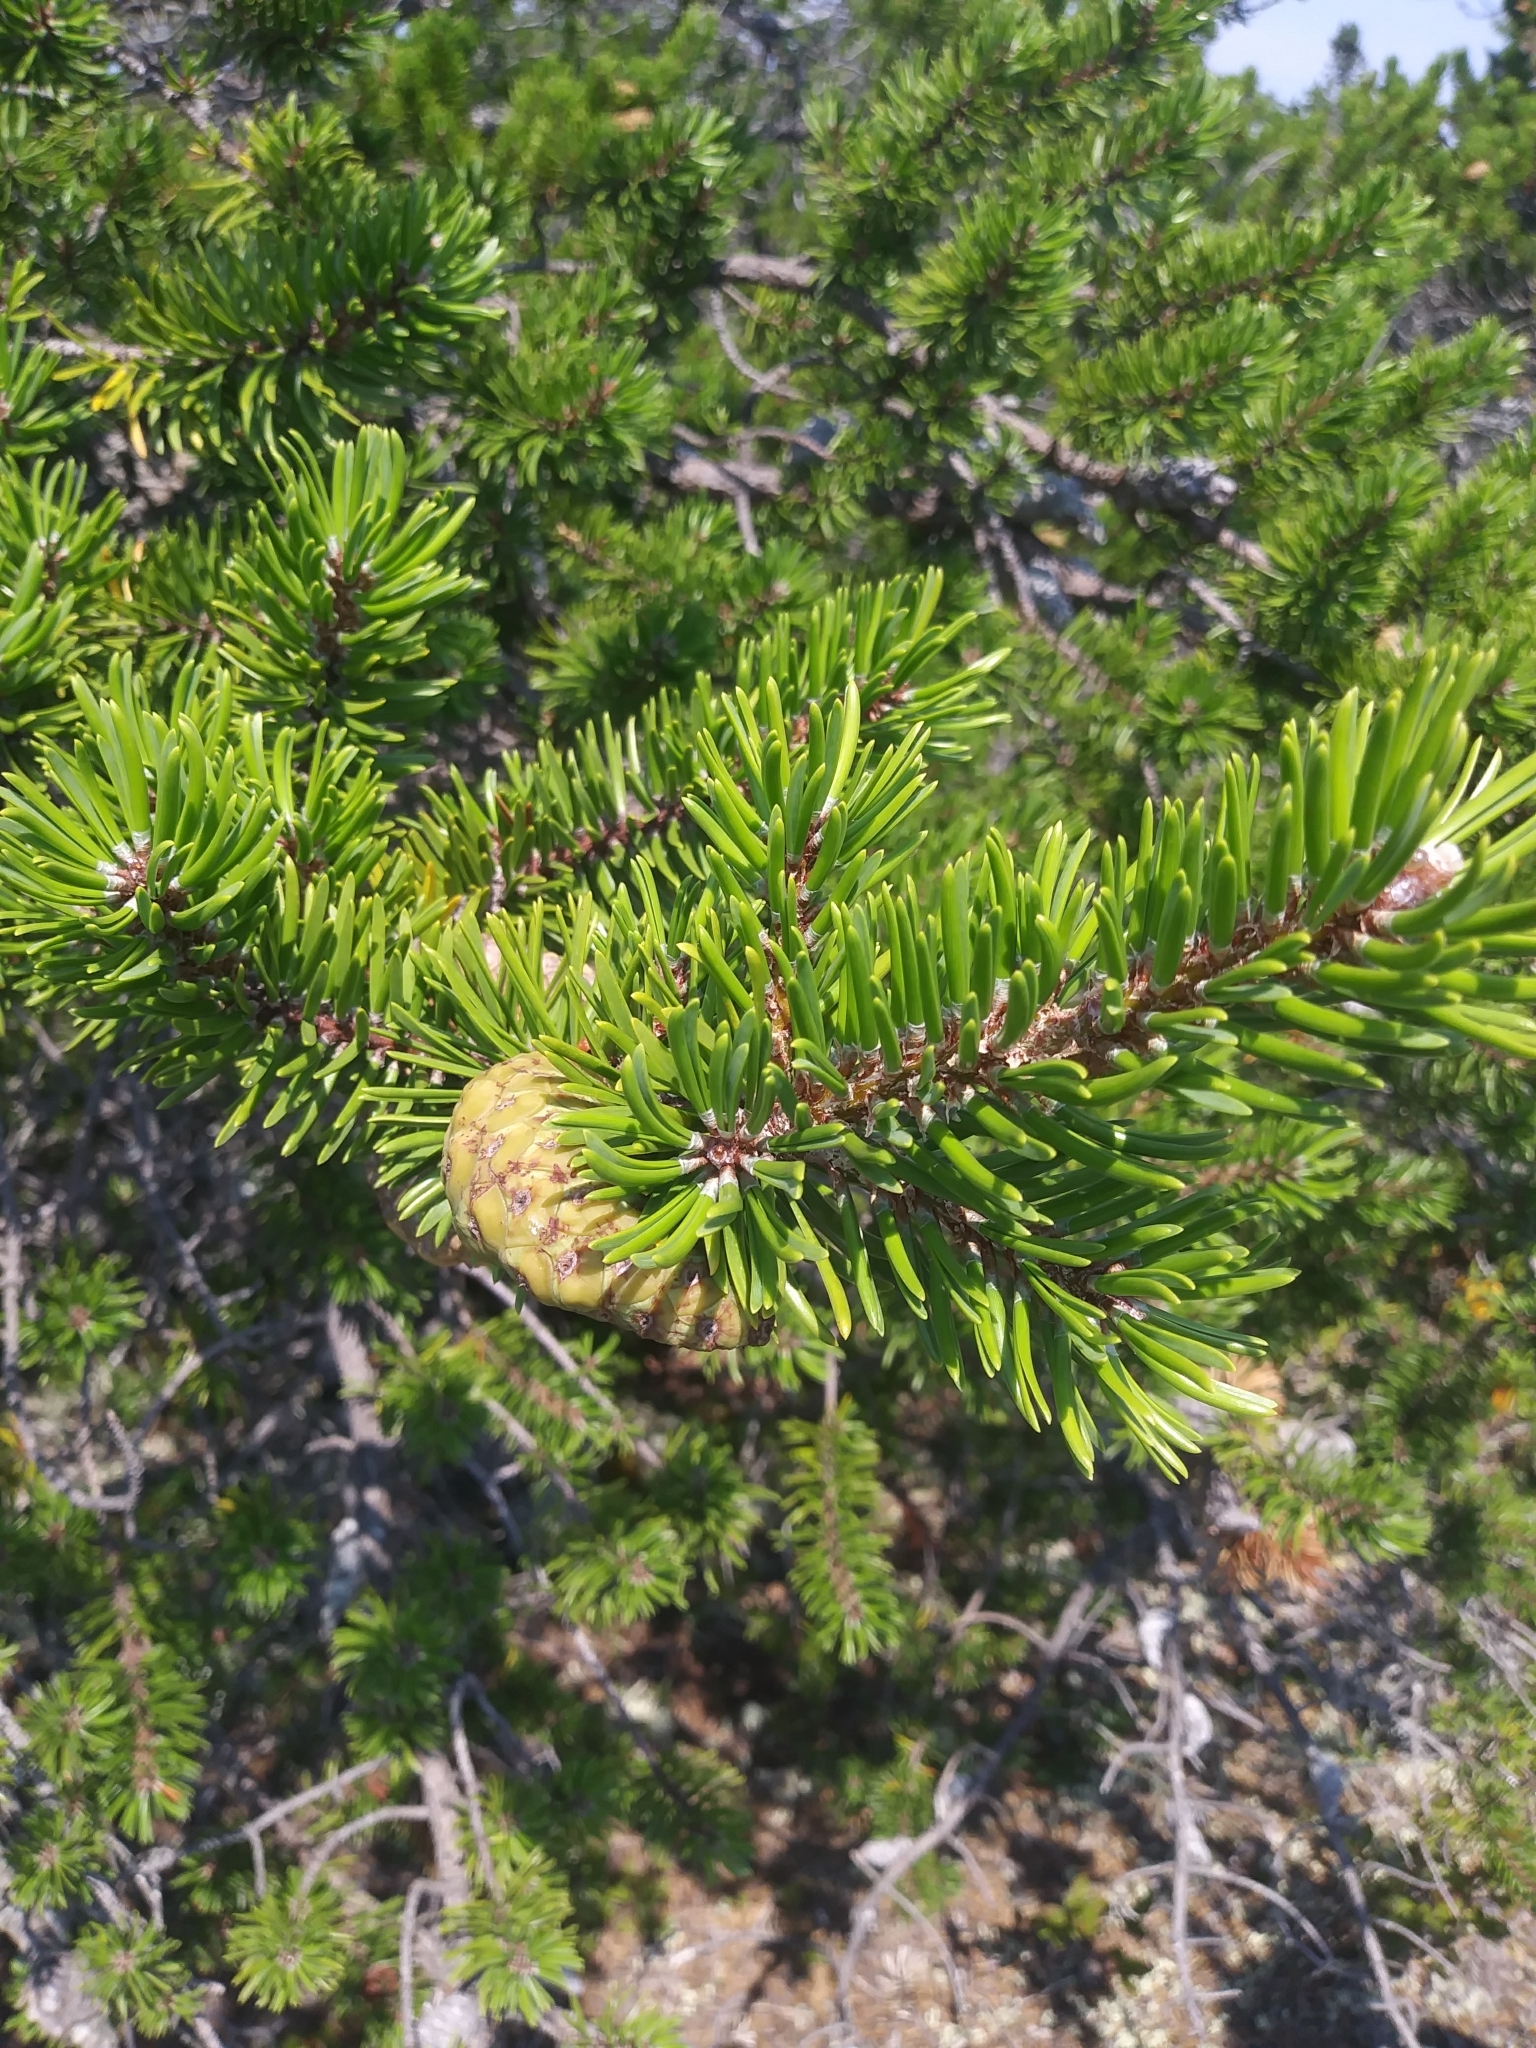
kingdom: Plantae
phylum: Tracheophyta
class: Pinopsida
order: Pinales
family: Pinaceae
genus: Pinus
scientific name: Pinus banksiana
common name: Jack pine
